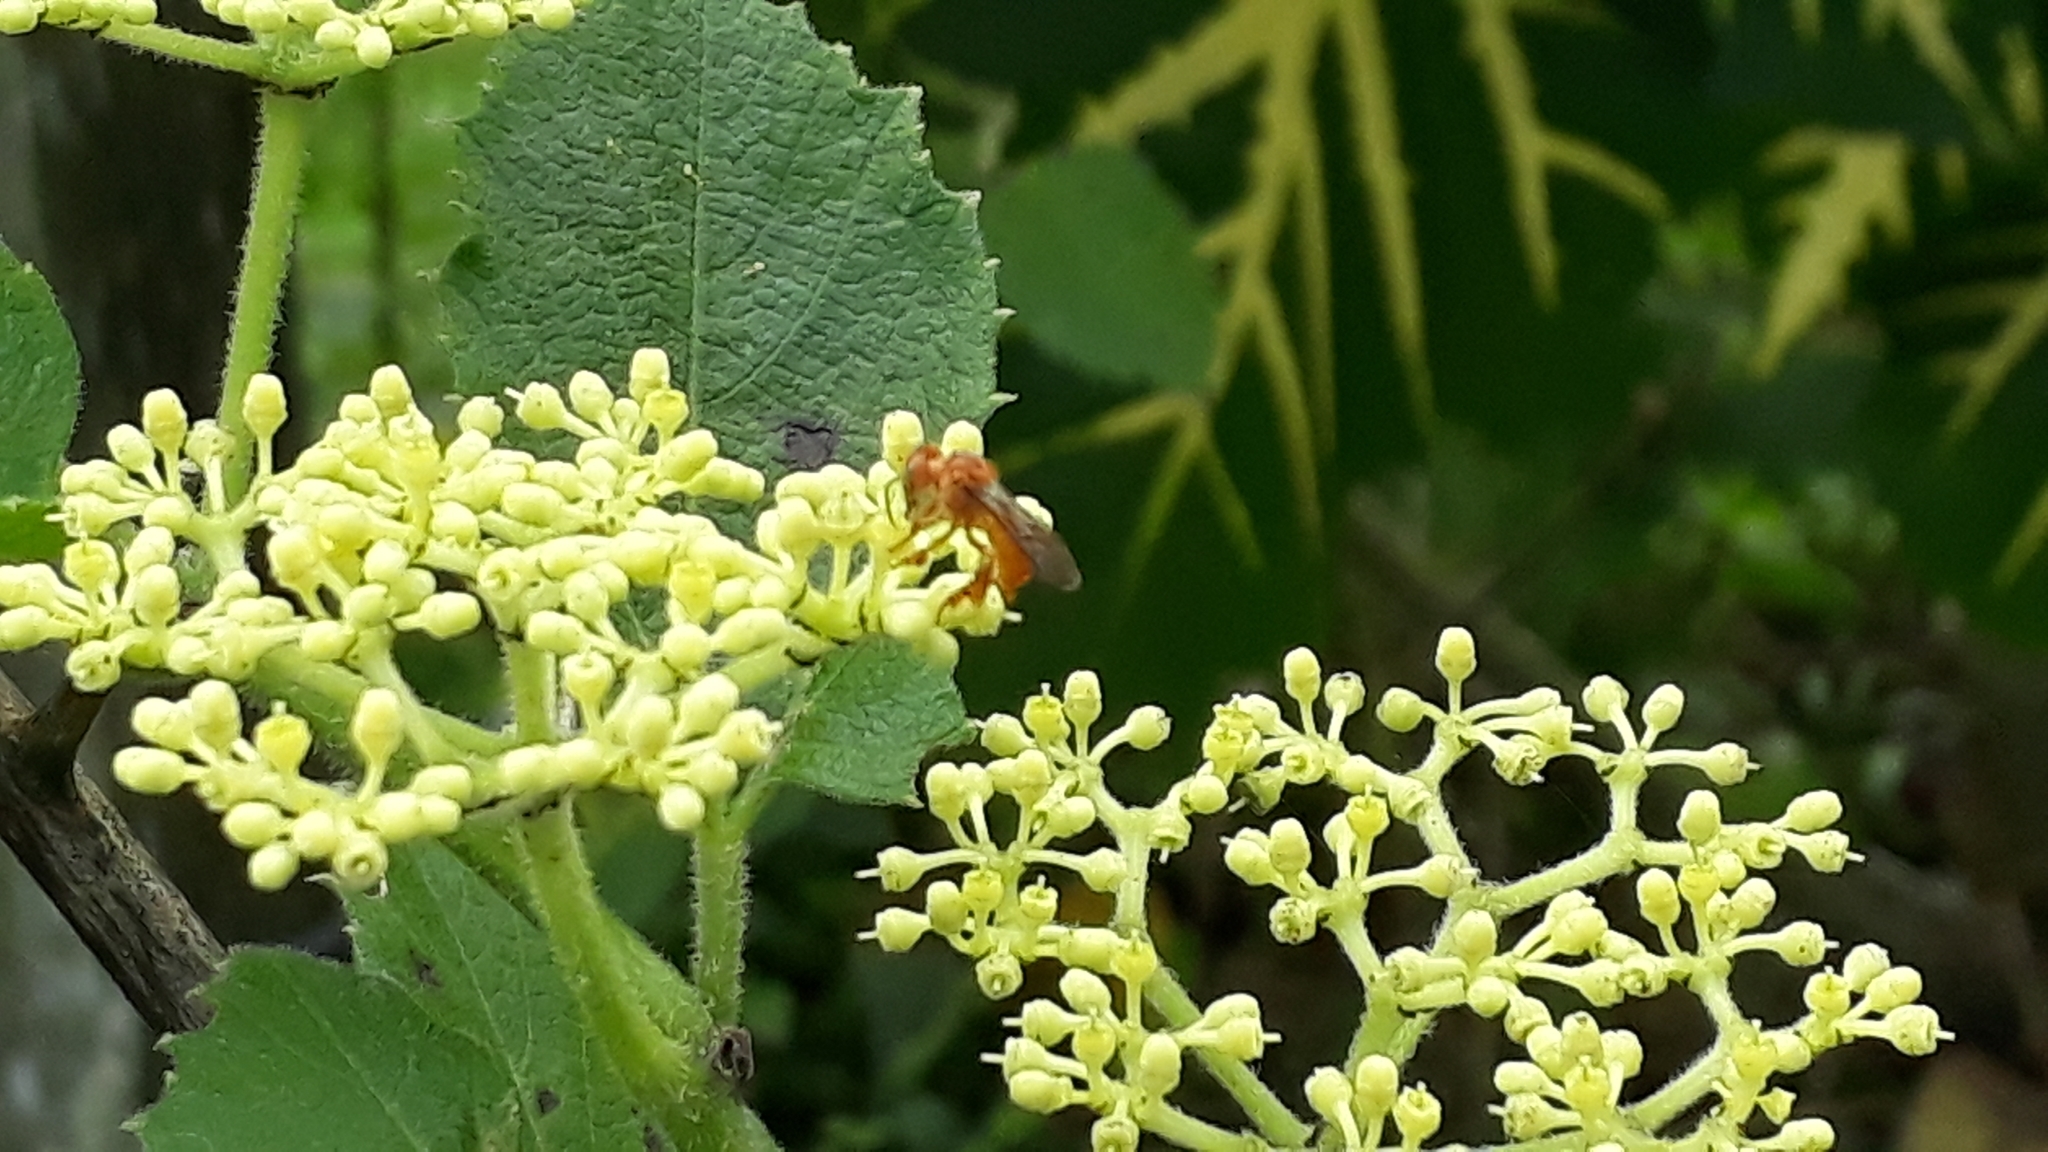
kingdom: Animalia
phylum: Arthropoda
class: Insecta
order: Hymenoptera
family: Apidae
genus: Trigona
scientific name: Trigona pallens
